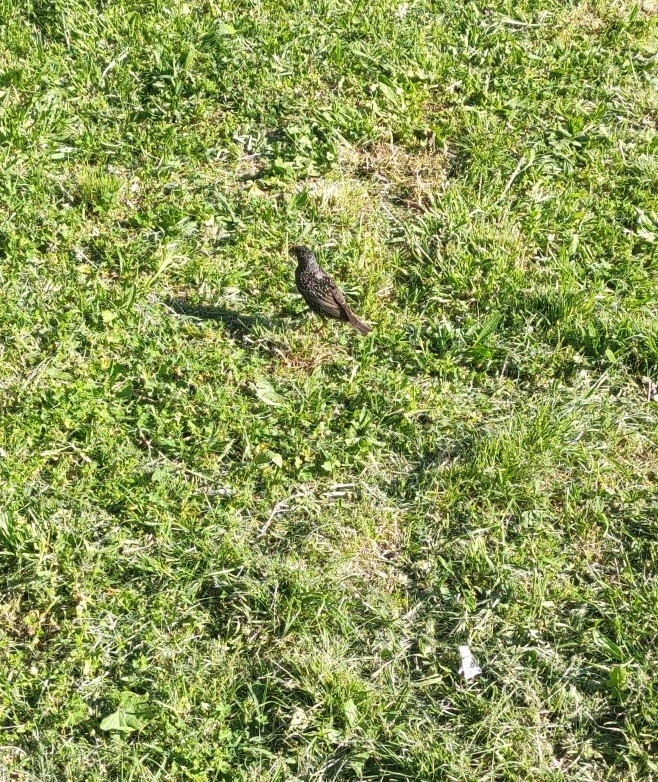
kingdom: Animalia
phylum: Chordata
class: Aves
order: Passeriformes
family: Sturnidae
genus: Sturnus
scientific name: Sturnus vulgaris
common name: Common starling
